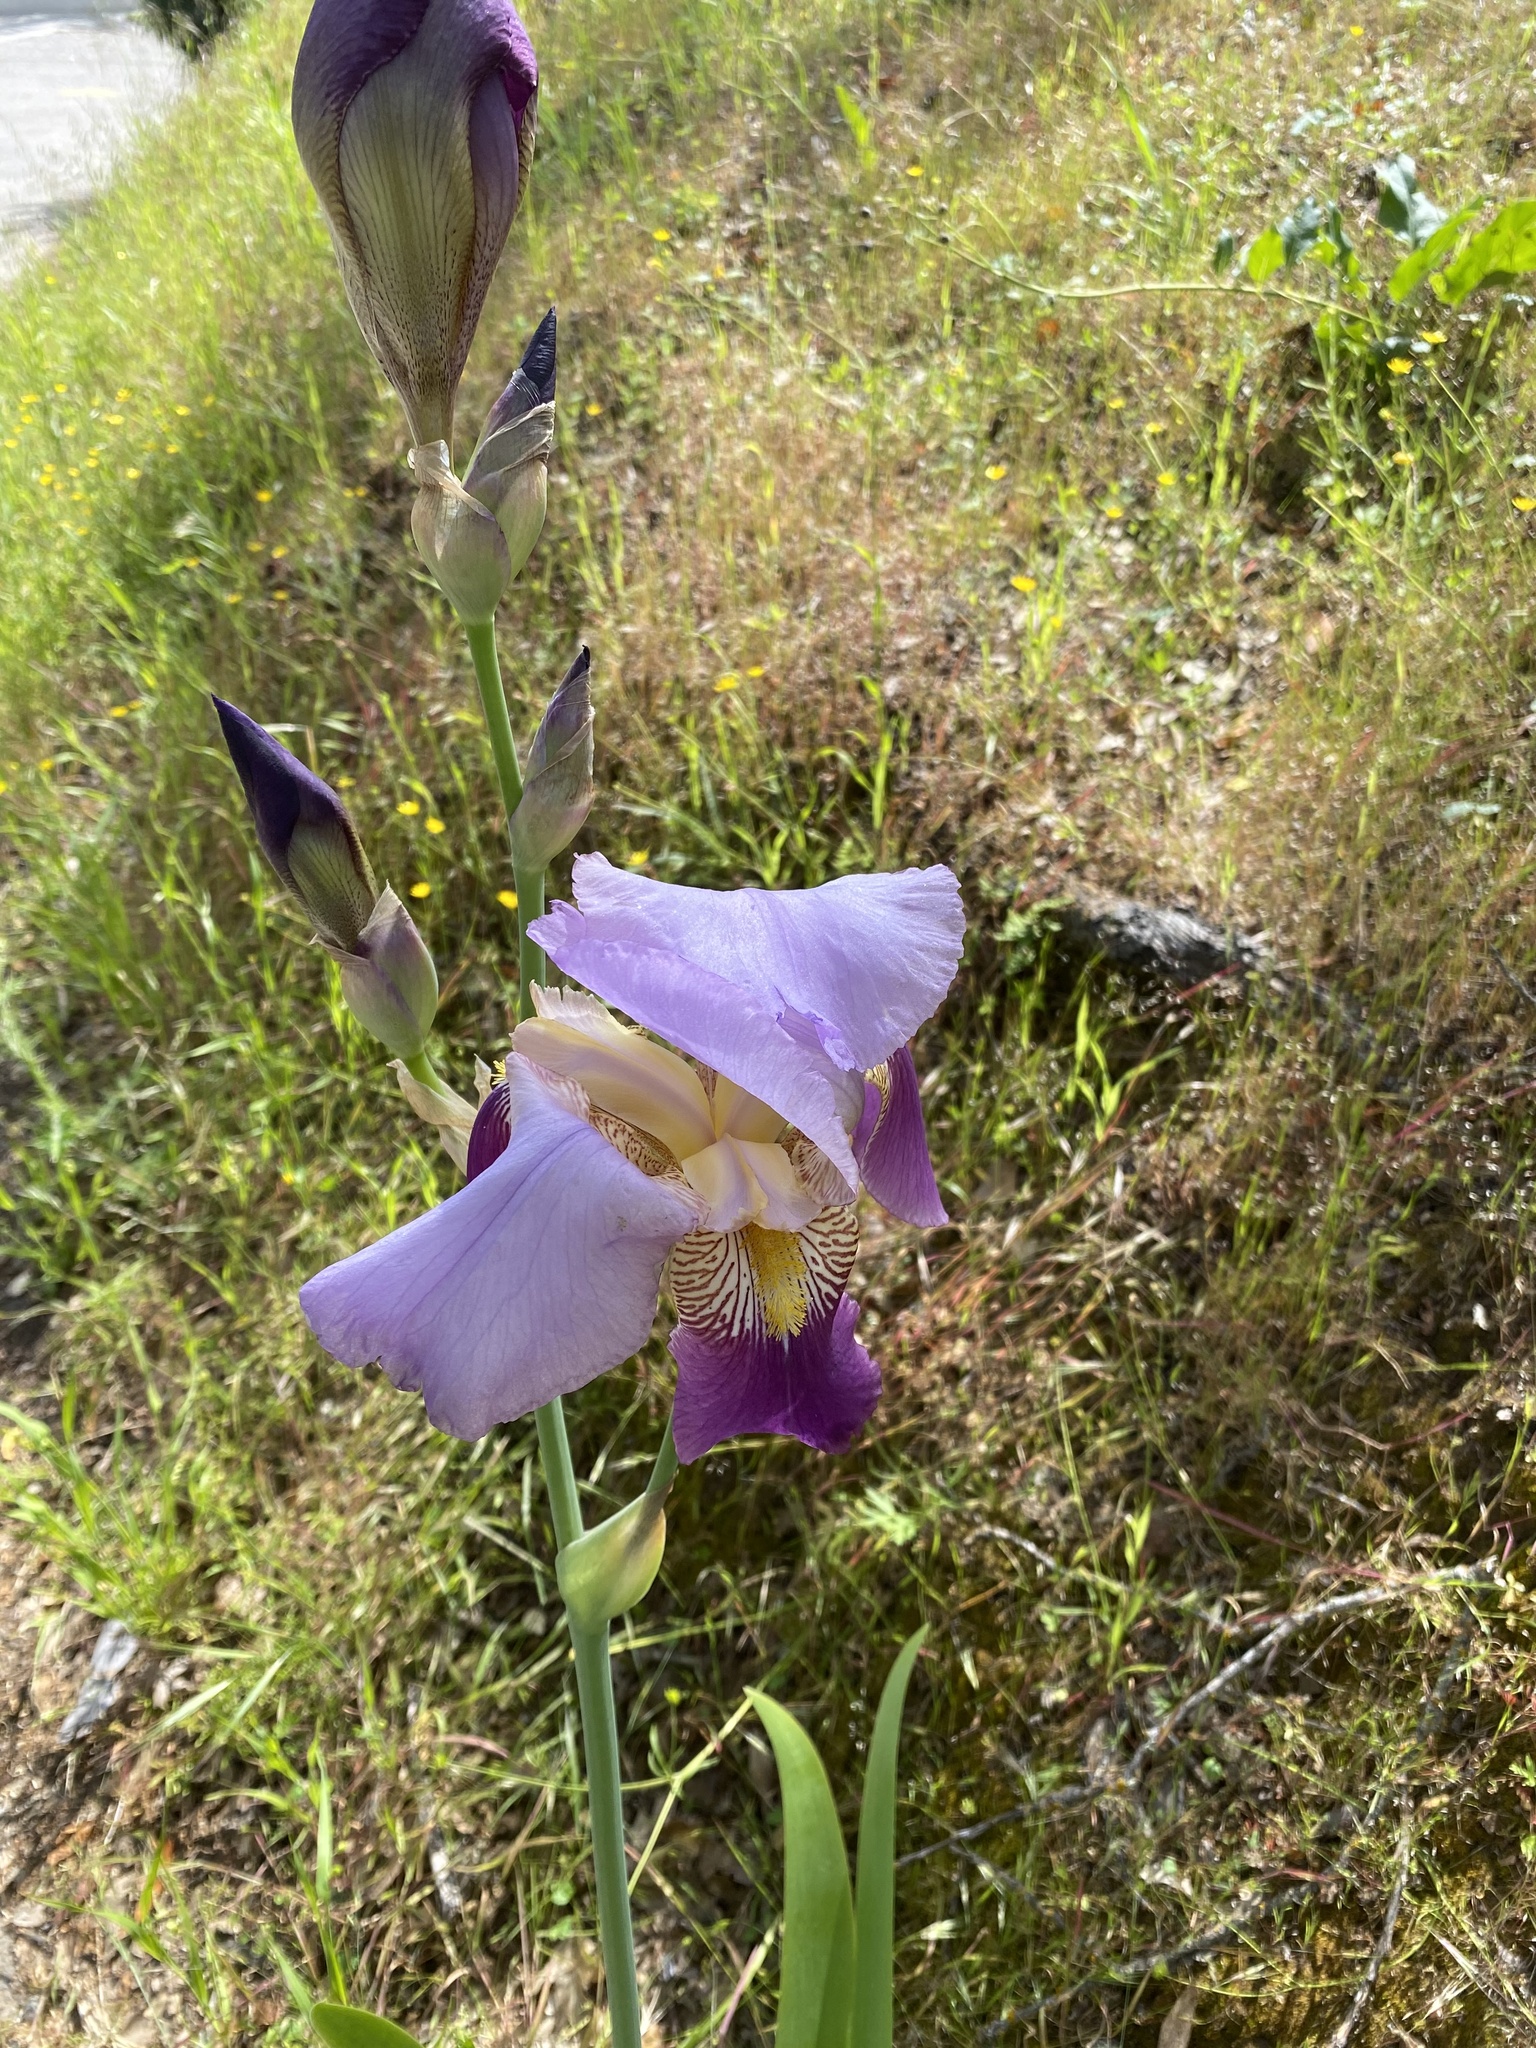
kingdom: Plantae
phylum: Tracheophyta
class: Liliopsida
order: Asparagales
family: Iridaceae
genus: Iris
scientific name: Iris hybrida
